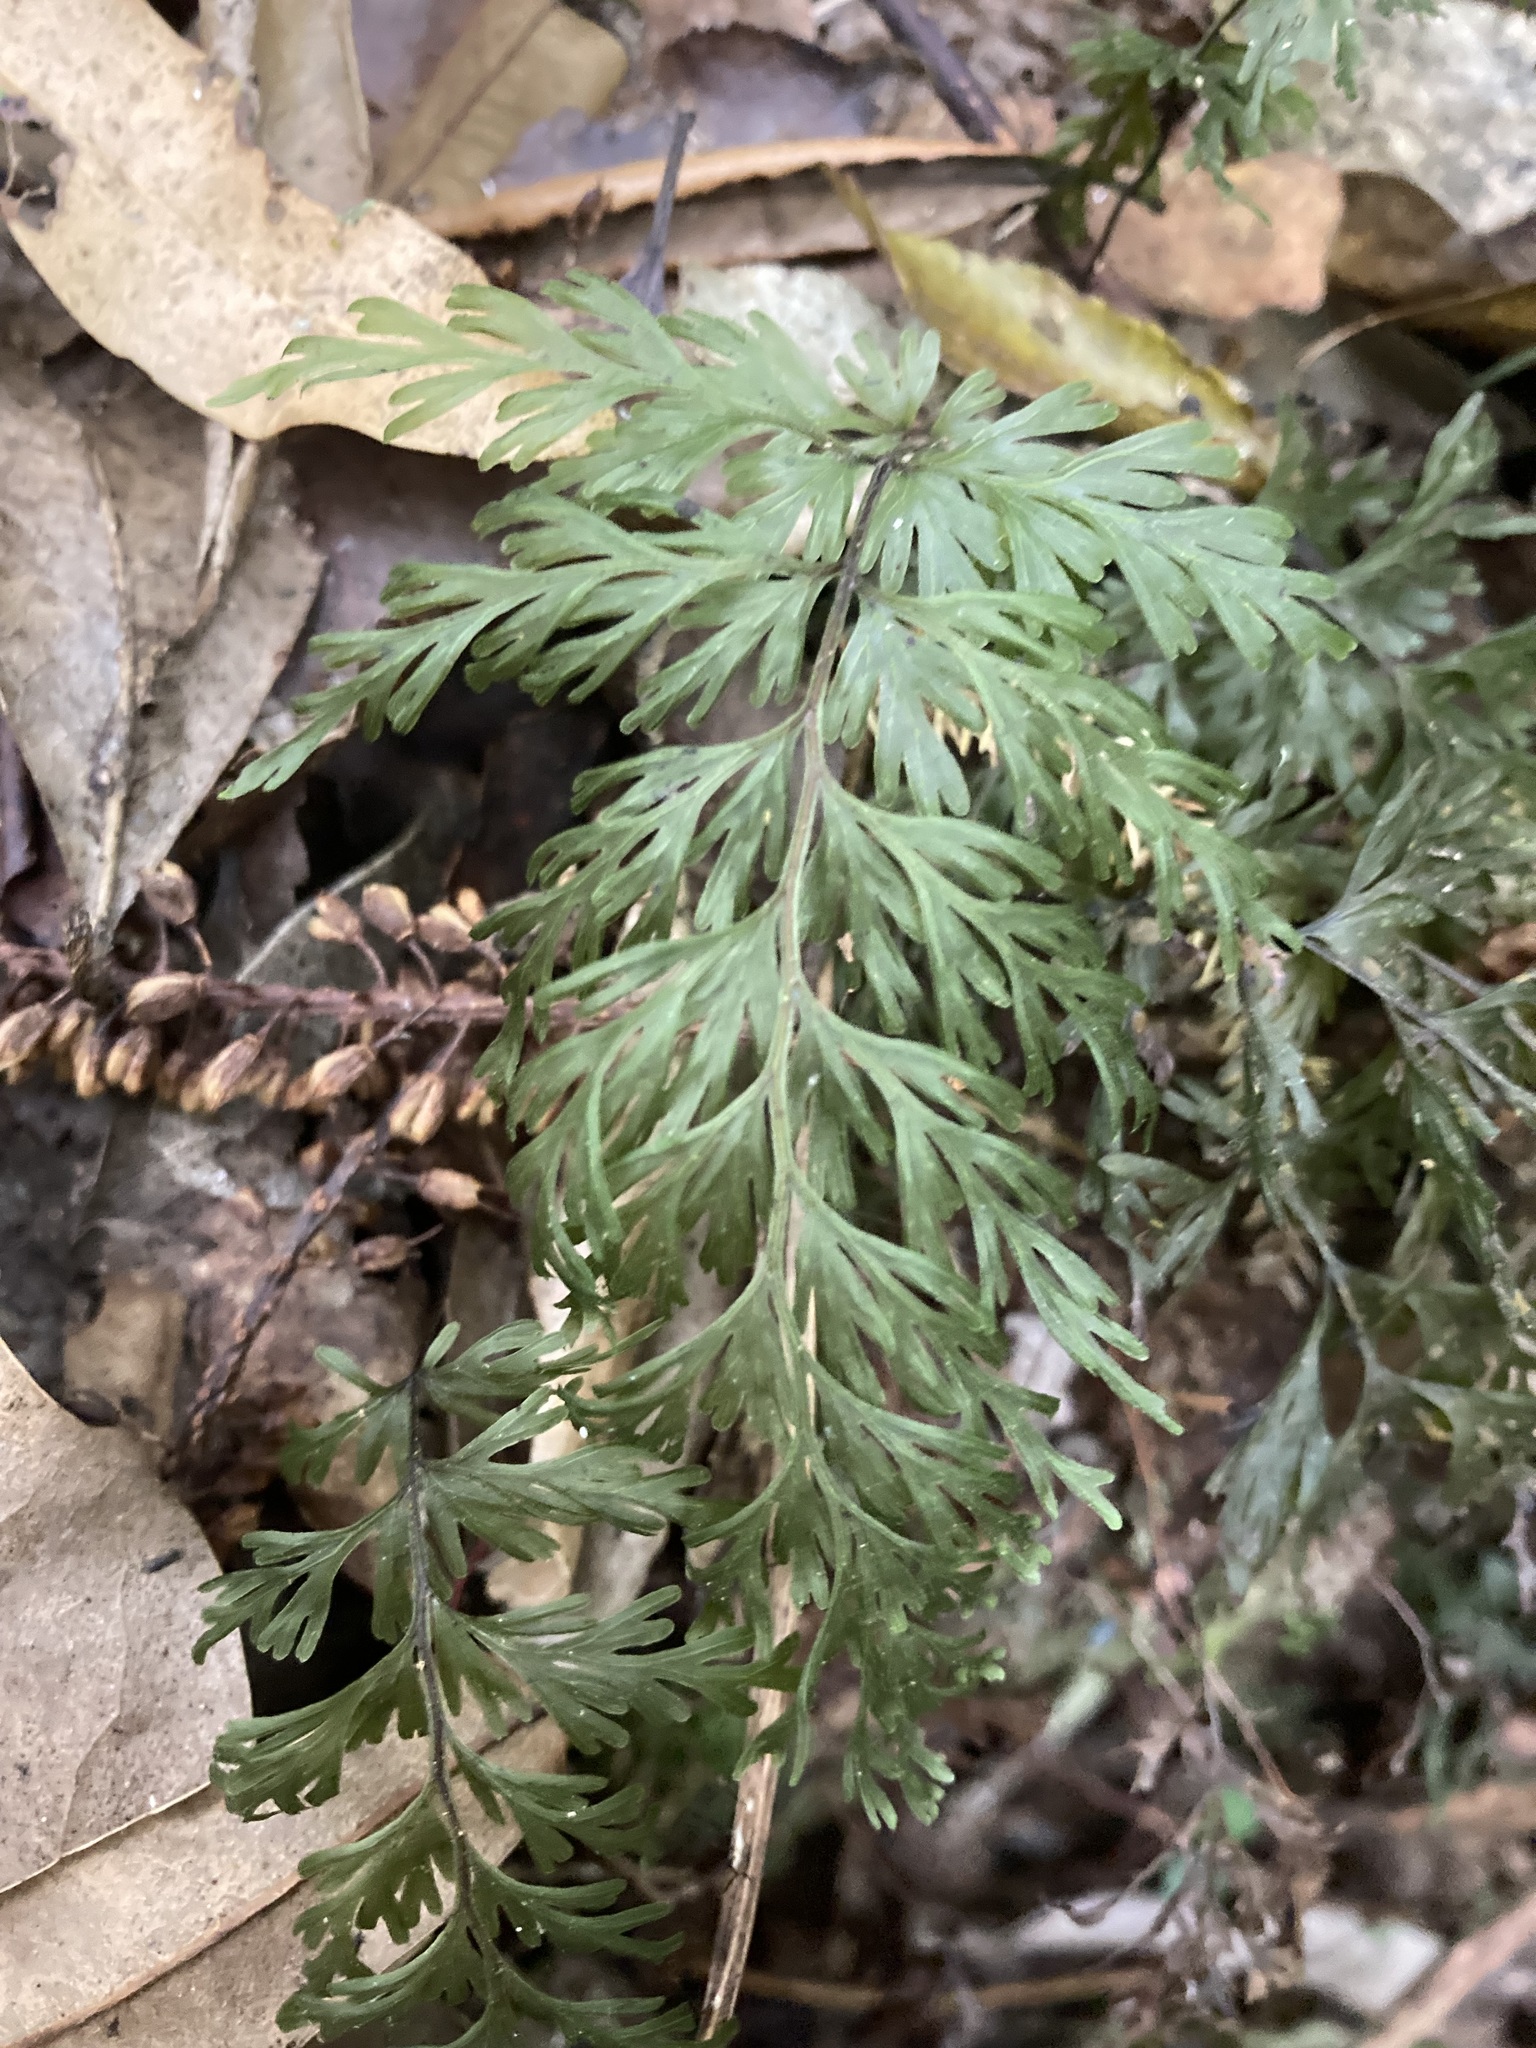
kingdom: Plantae
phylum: Tracheophyta
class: Polypodiopsida
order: Hymenophyllales
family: Hymenophyllaceae
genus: Hymenophyllum
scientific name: Hymenophyllum demissum
